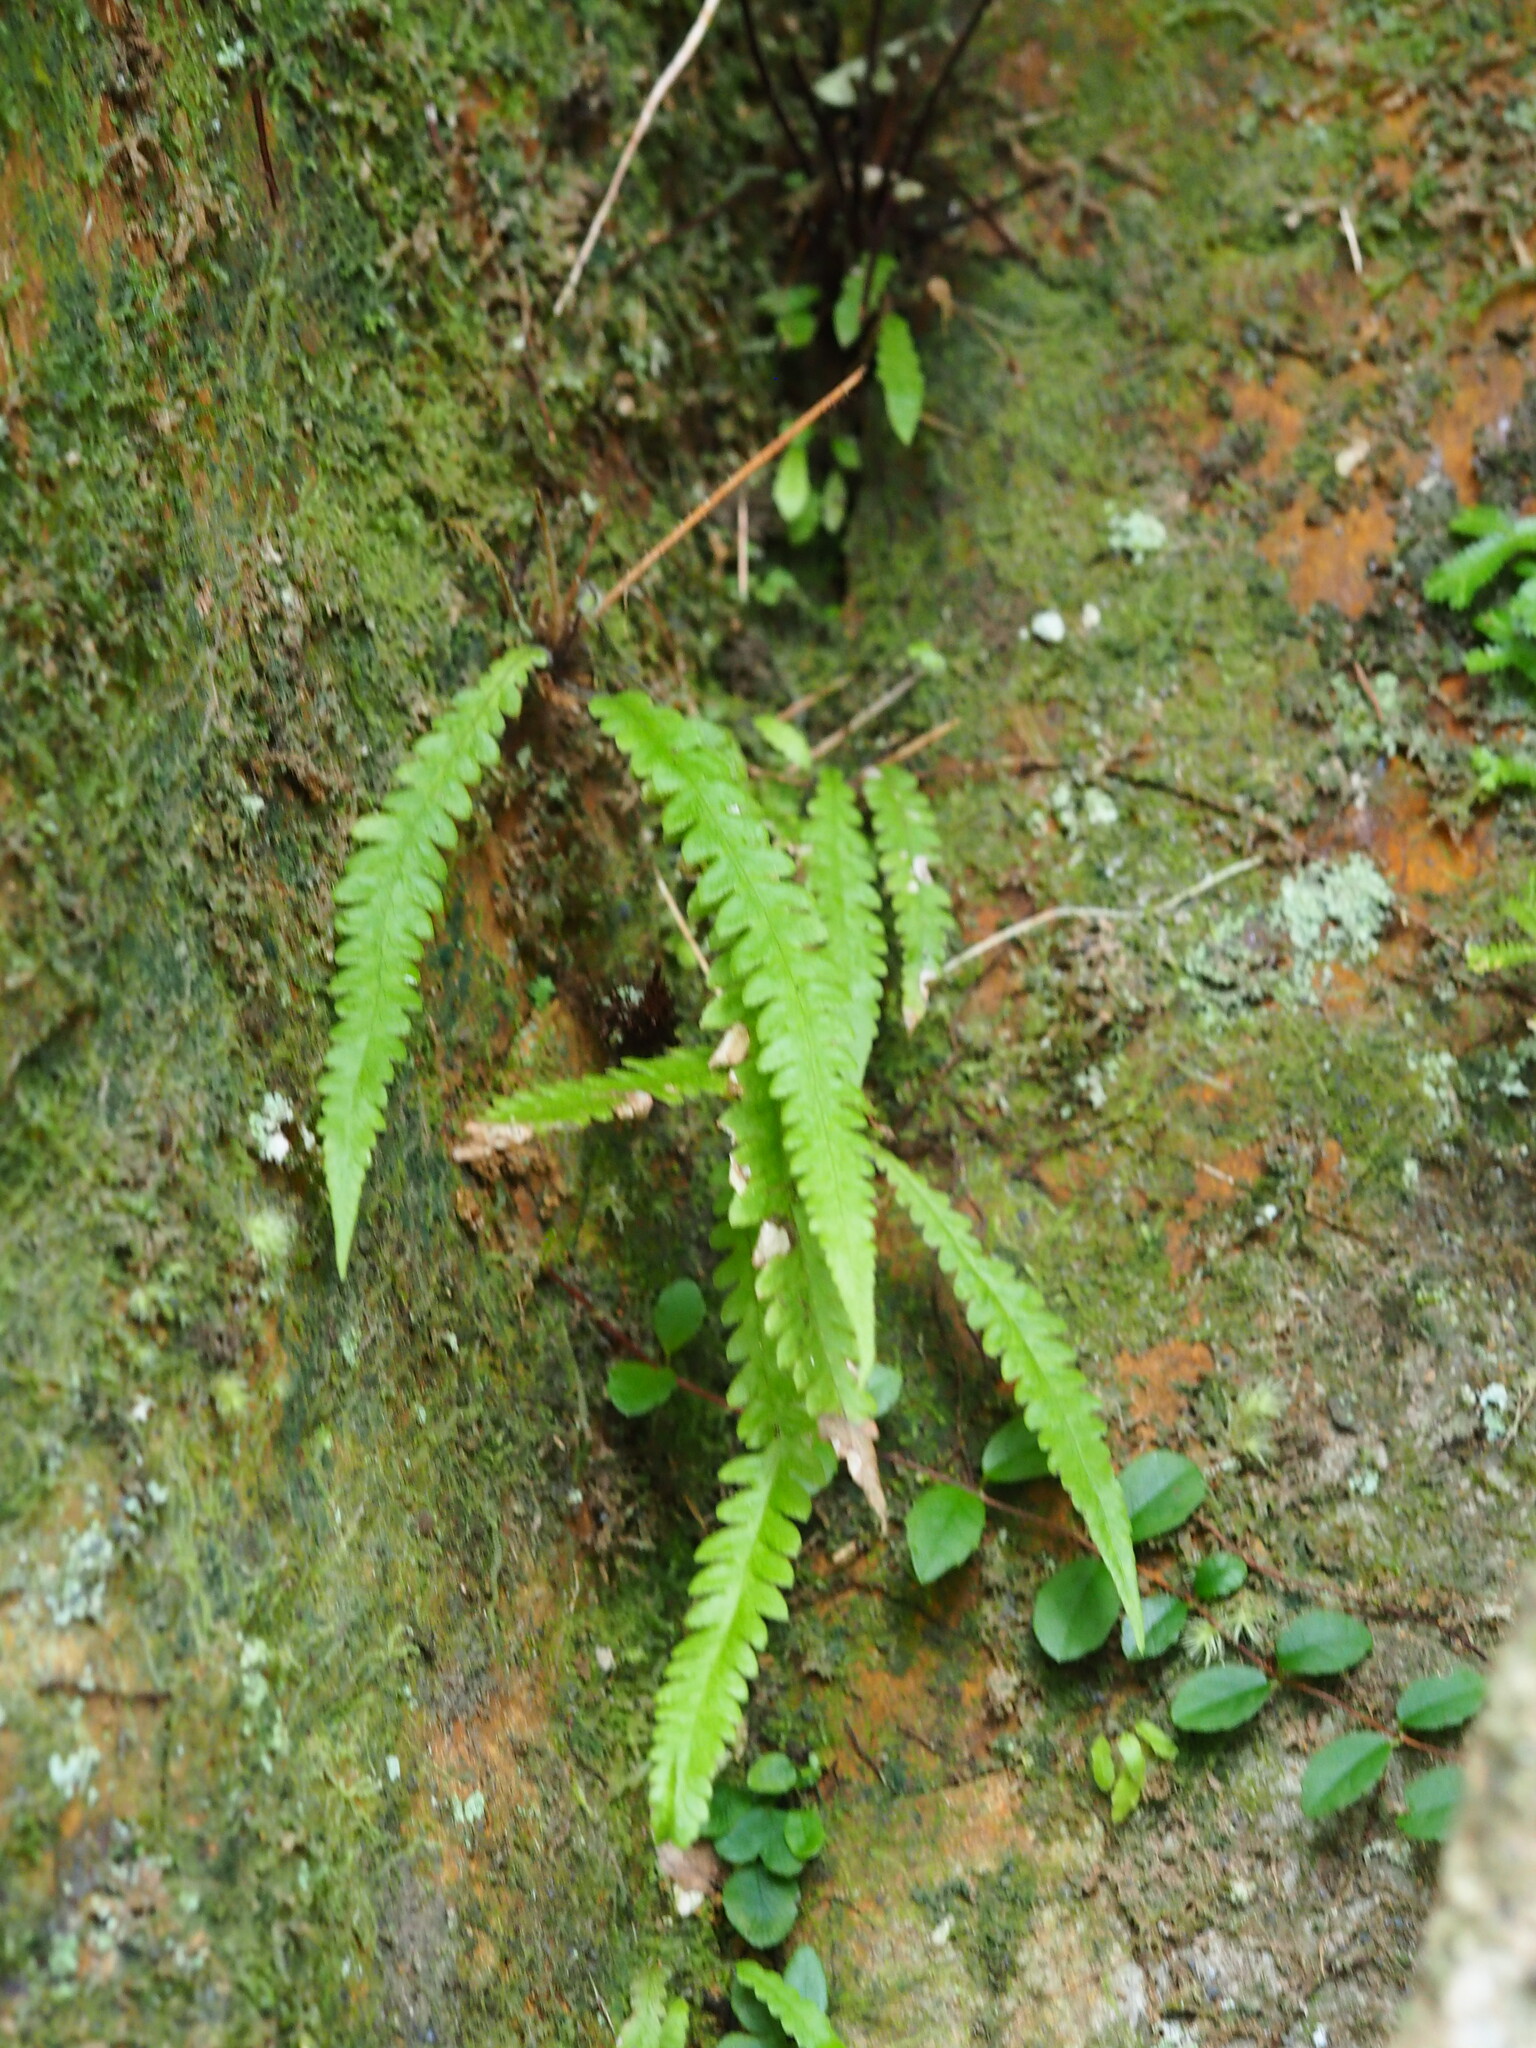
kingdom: Plantae
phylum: Tracheophyta
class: Polypodiopsida
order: Polypodiales
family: Thelypteridaceae
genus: Phegopteris
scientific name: Phegopteris decursive-pinnata
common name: Japanese beech fern
